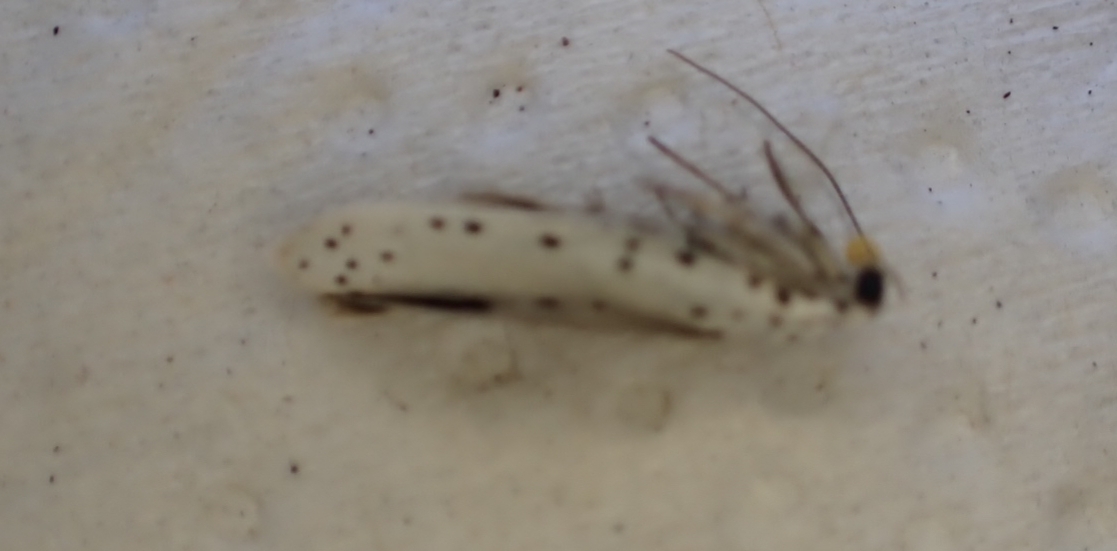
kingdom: Animalia
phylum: Arthropoda
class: Insecta
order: Lepidoptera
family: Yponomeutidae
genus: Yponomeuta
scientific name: Yponomeuta
